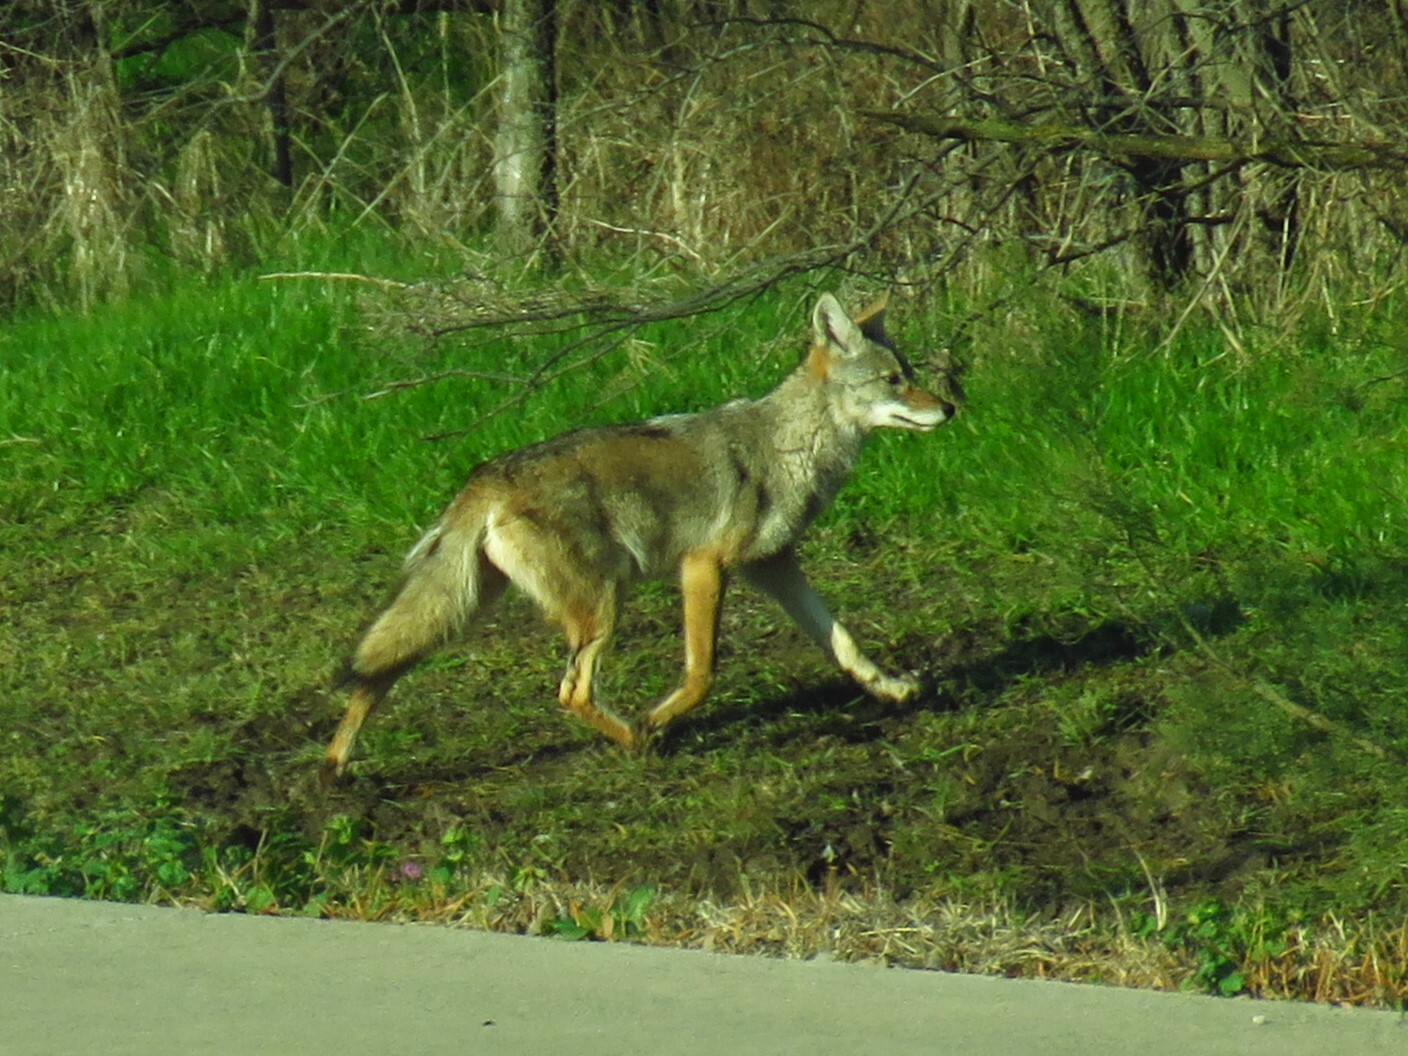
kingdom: Animalia
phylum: Chordata
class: Mammalia
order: Carnivora
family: Canidae
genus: Canis
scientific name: Canis latrans
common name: Coyote
